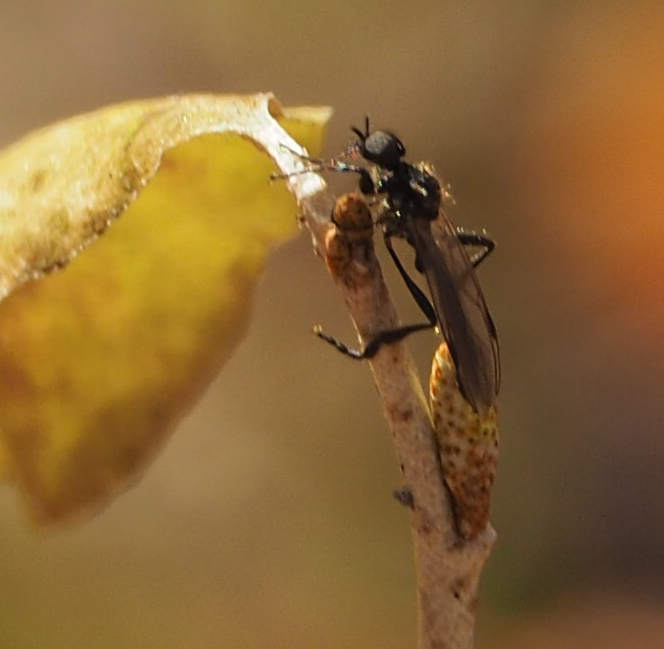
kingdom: Animalia
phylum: Arthropoda
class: Insecta
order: Diptera
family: Bibionidae
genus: Bibio
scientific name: Bibio longipes
